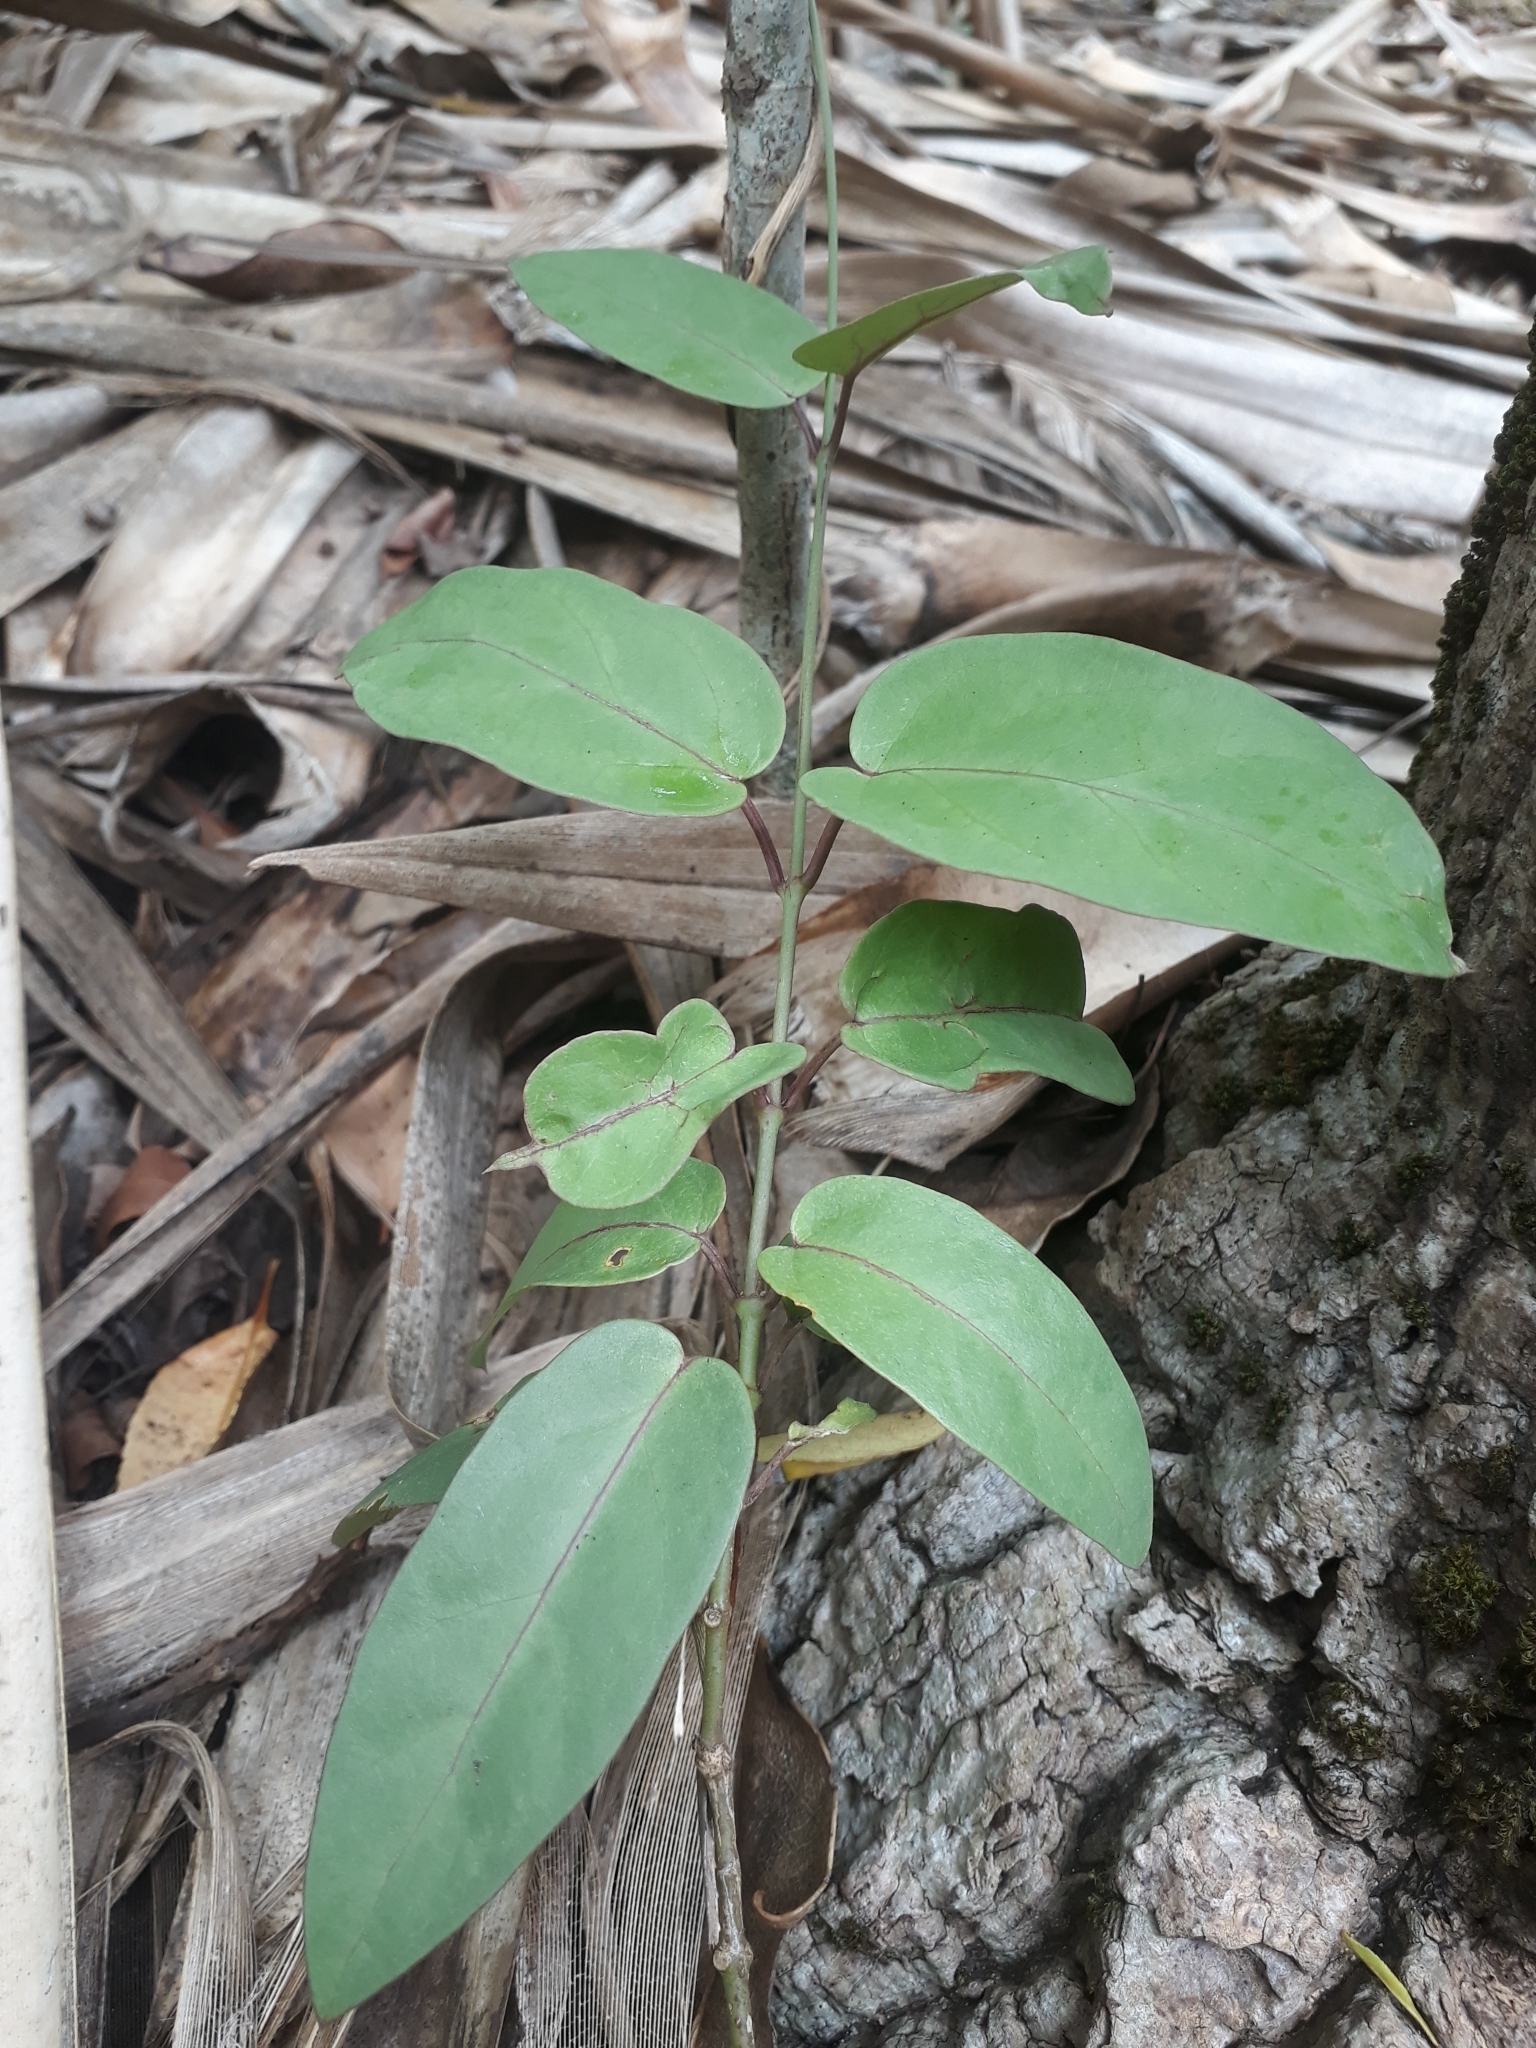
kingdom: Plantae
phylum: Tracheophyta
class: Magnoliopsida
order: Gentianales
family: Apocynaceae
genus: Vincetoxicum
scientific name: Vincetoxicum confusum
